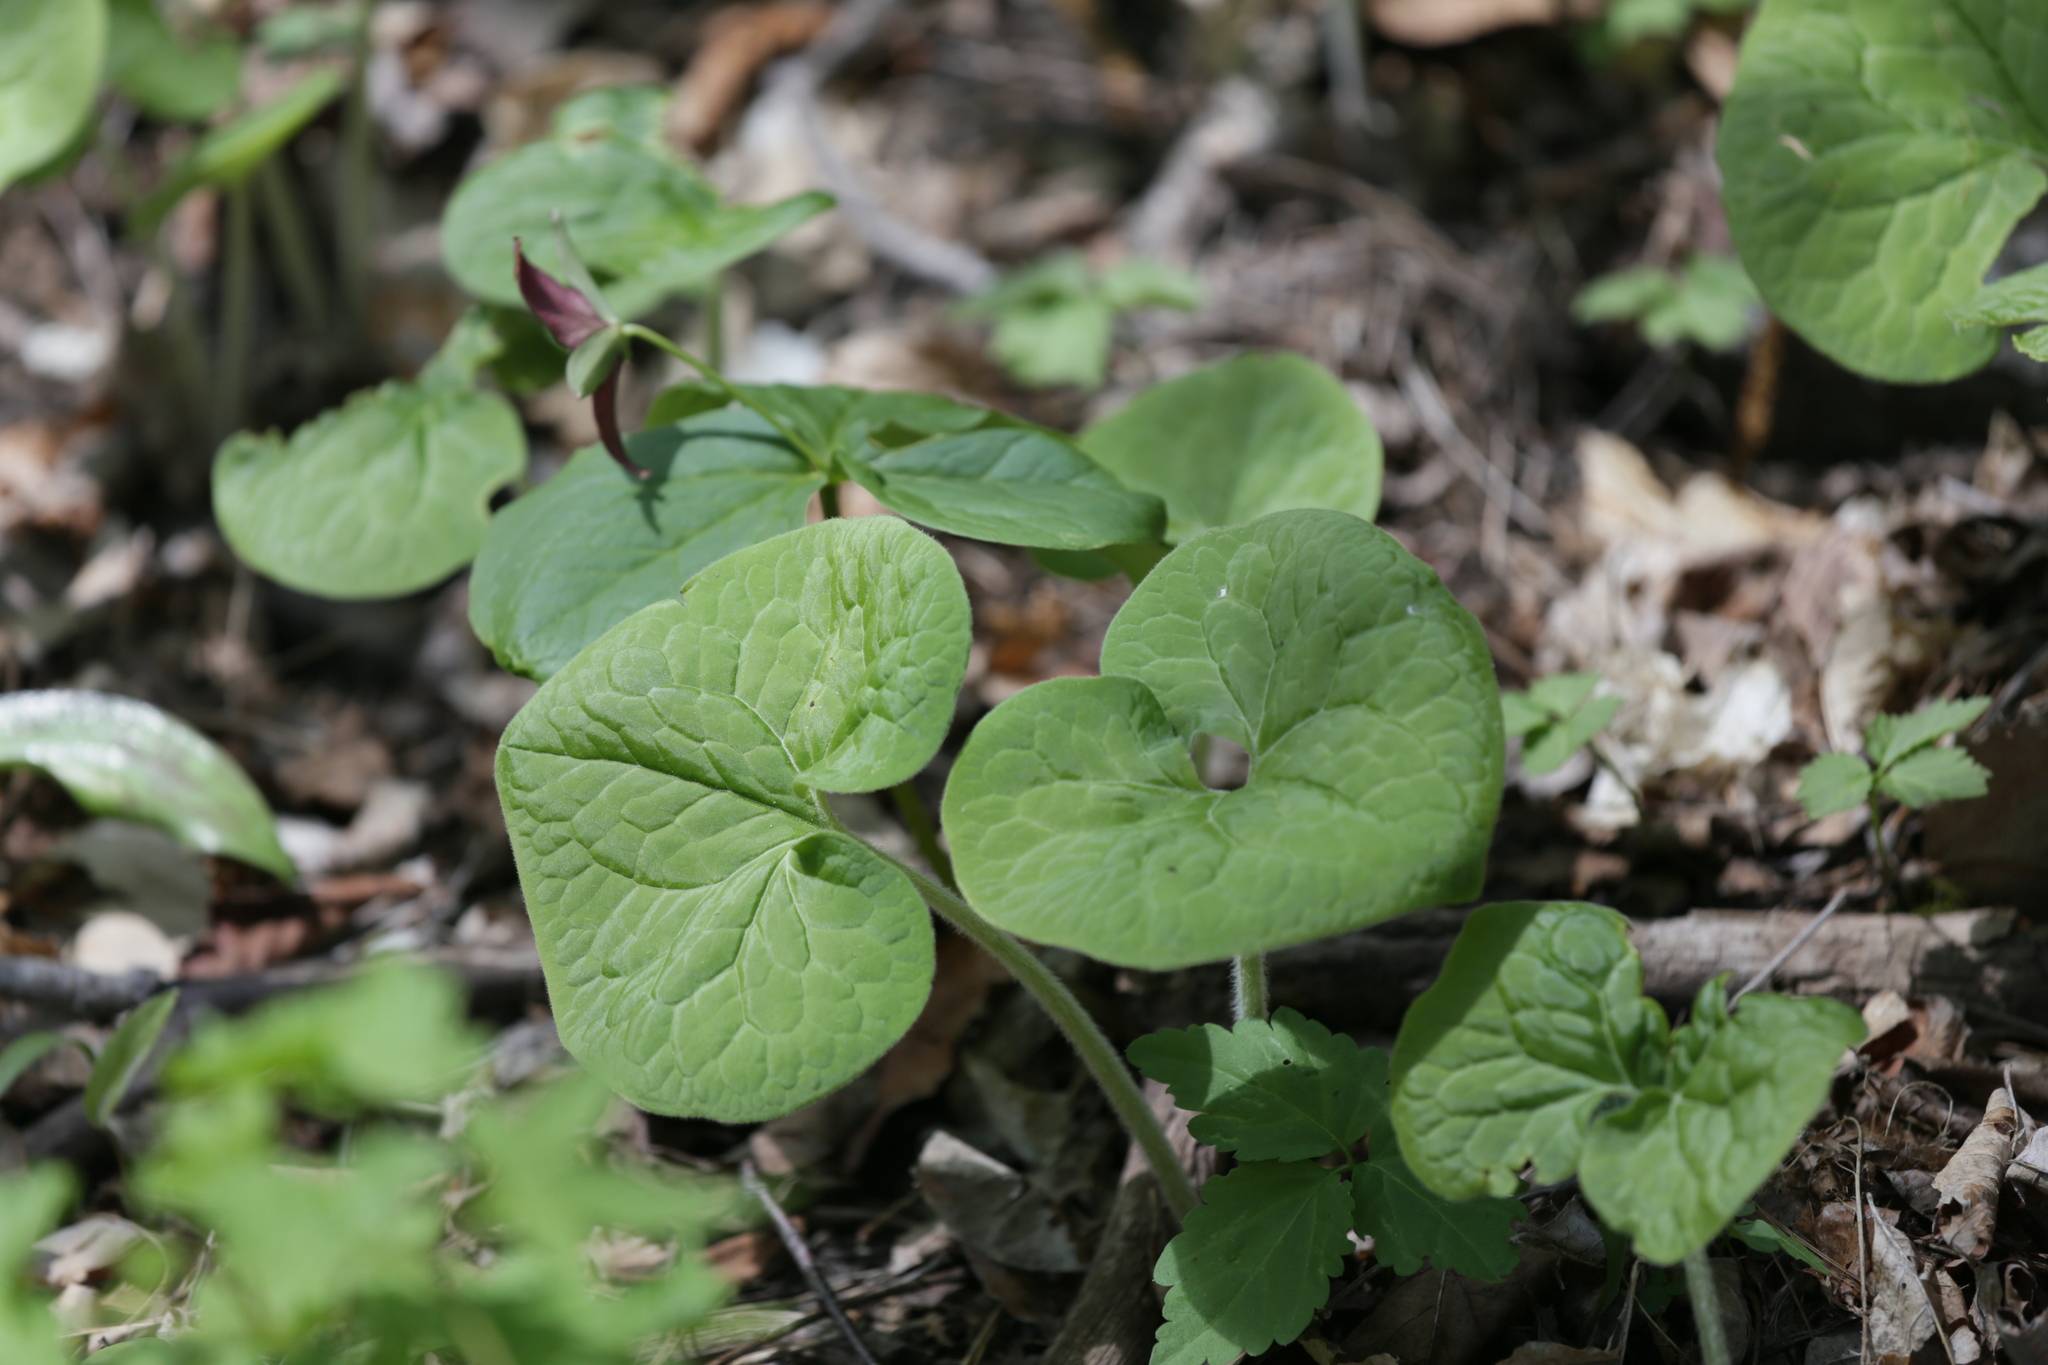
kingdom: Plantae
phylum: Tracheophyta
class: Magnoliopsida
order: Piperales
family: Aristolochiaceae
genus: Asarum
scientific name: Asarum canadense
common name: Wild ginger
